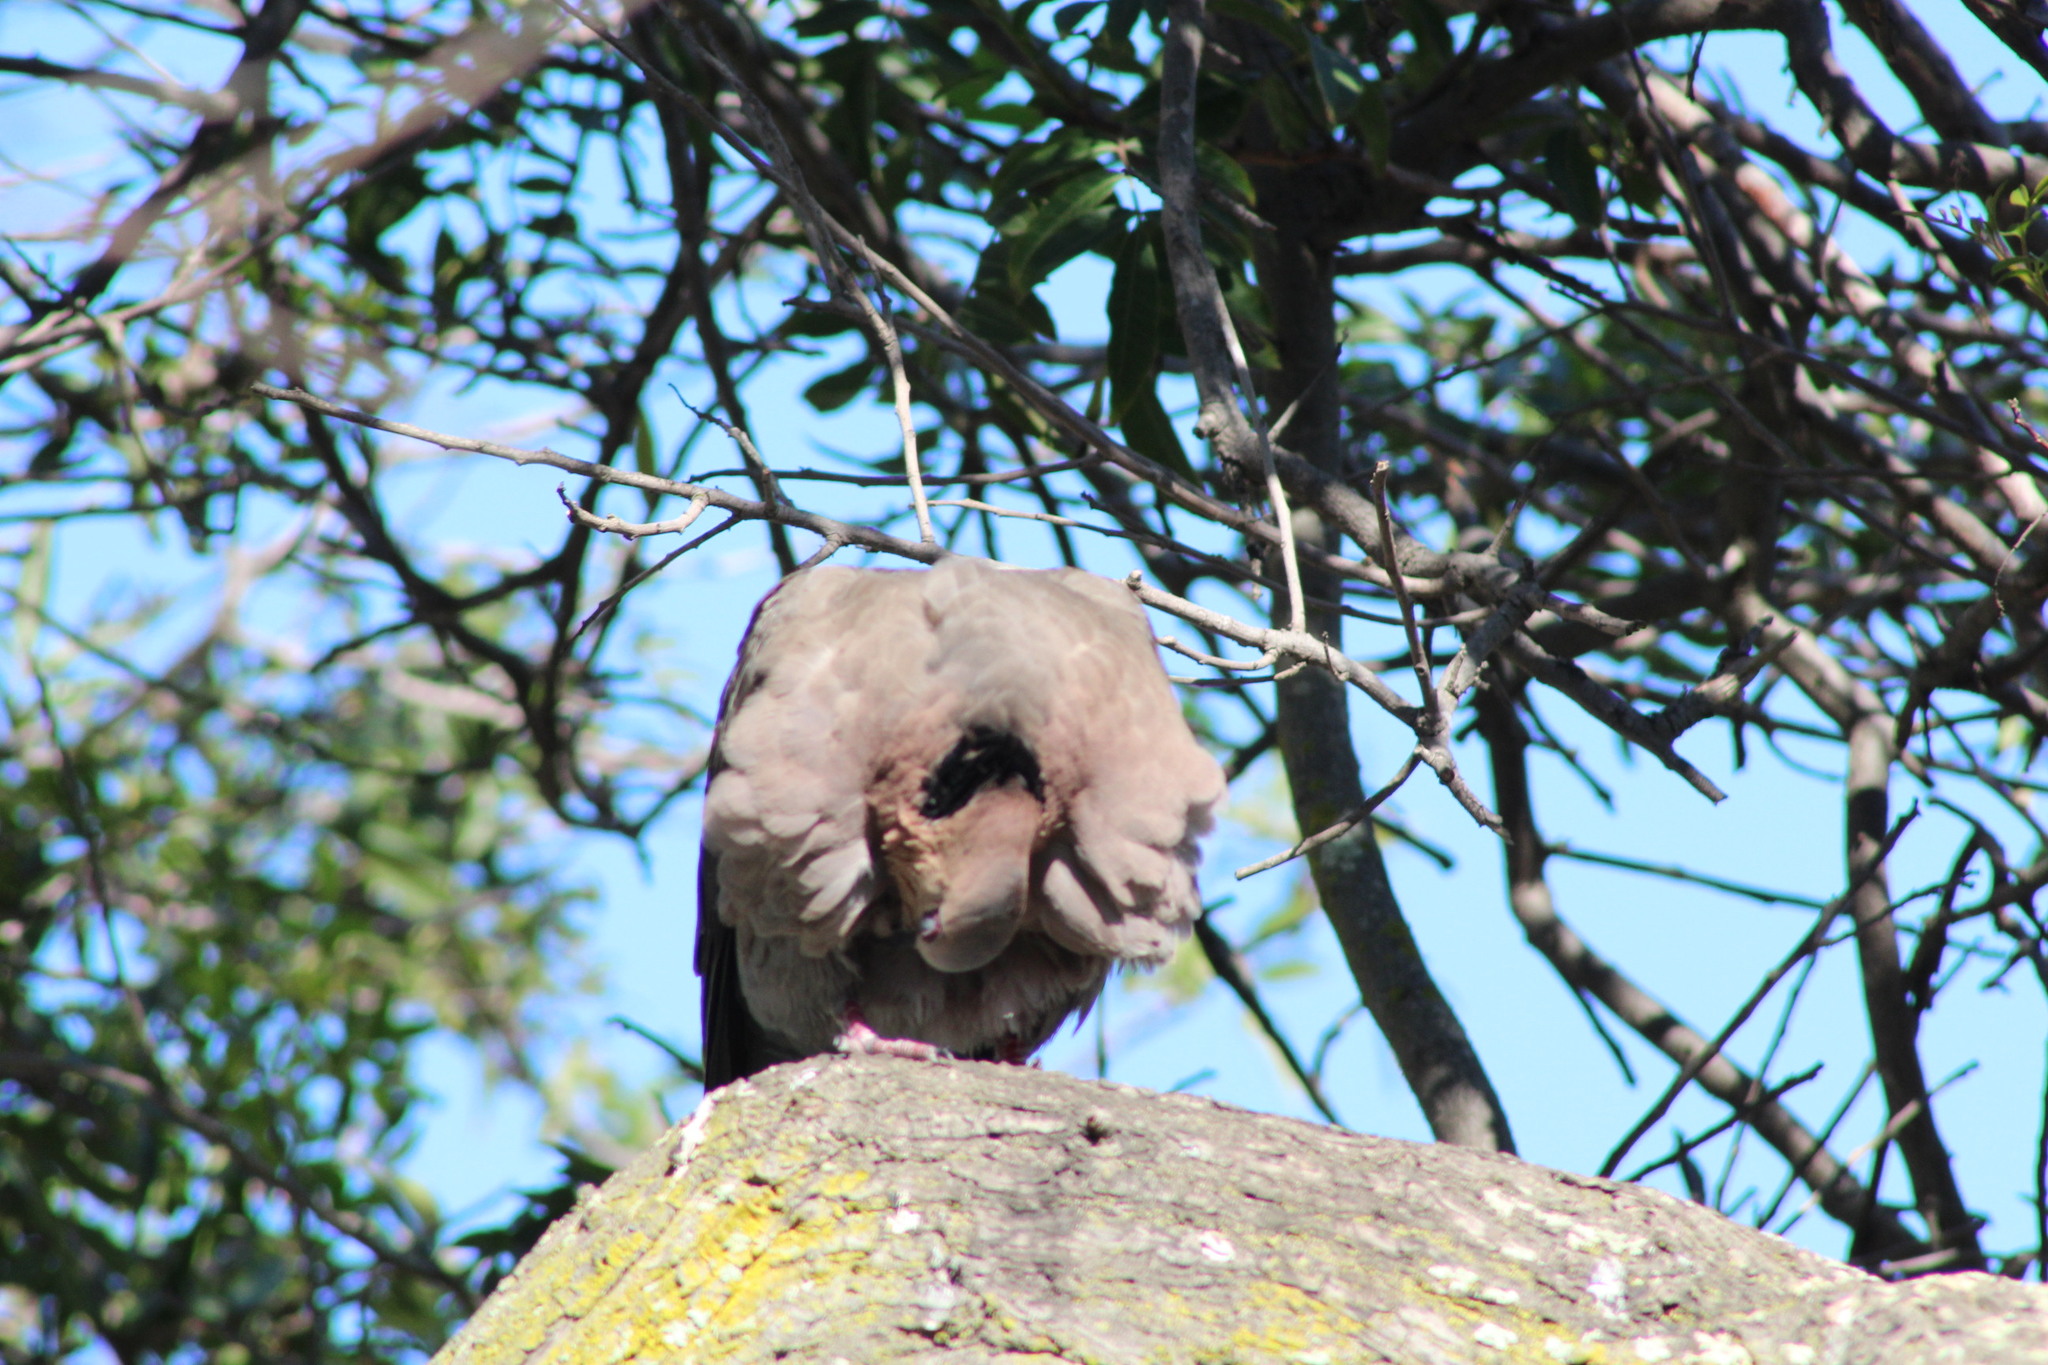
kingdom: Animalia
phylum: Chordata
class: Aves
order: Columbiformes
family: Columbidae
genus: Streptopelia
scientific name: Streptopelia semitorquata
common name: Red-eyed dove
